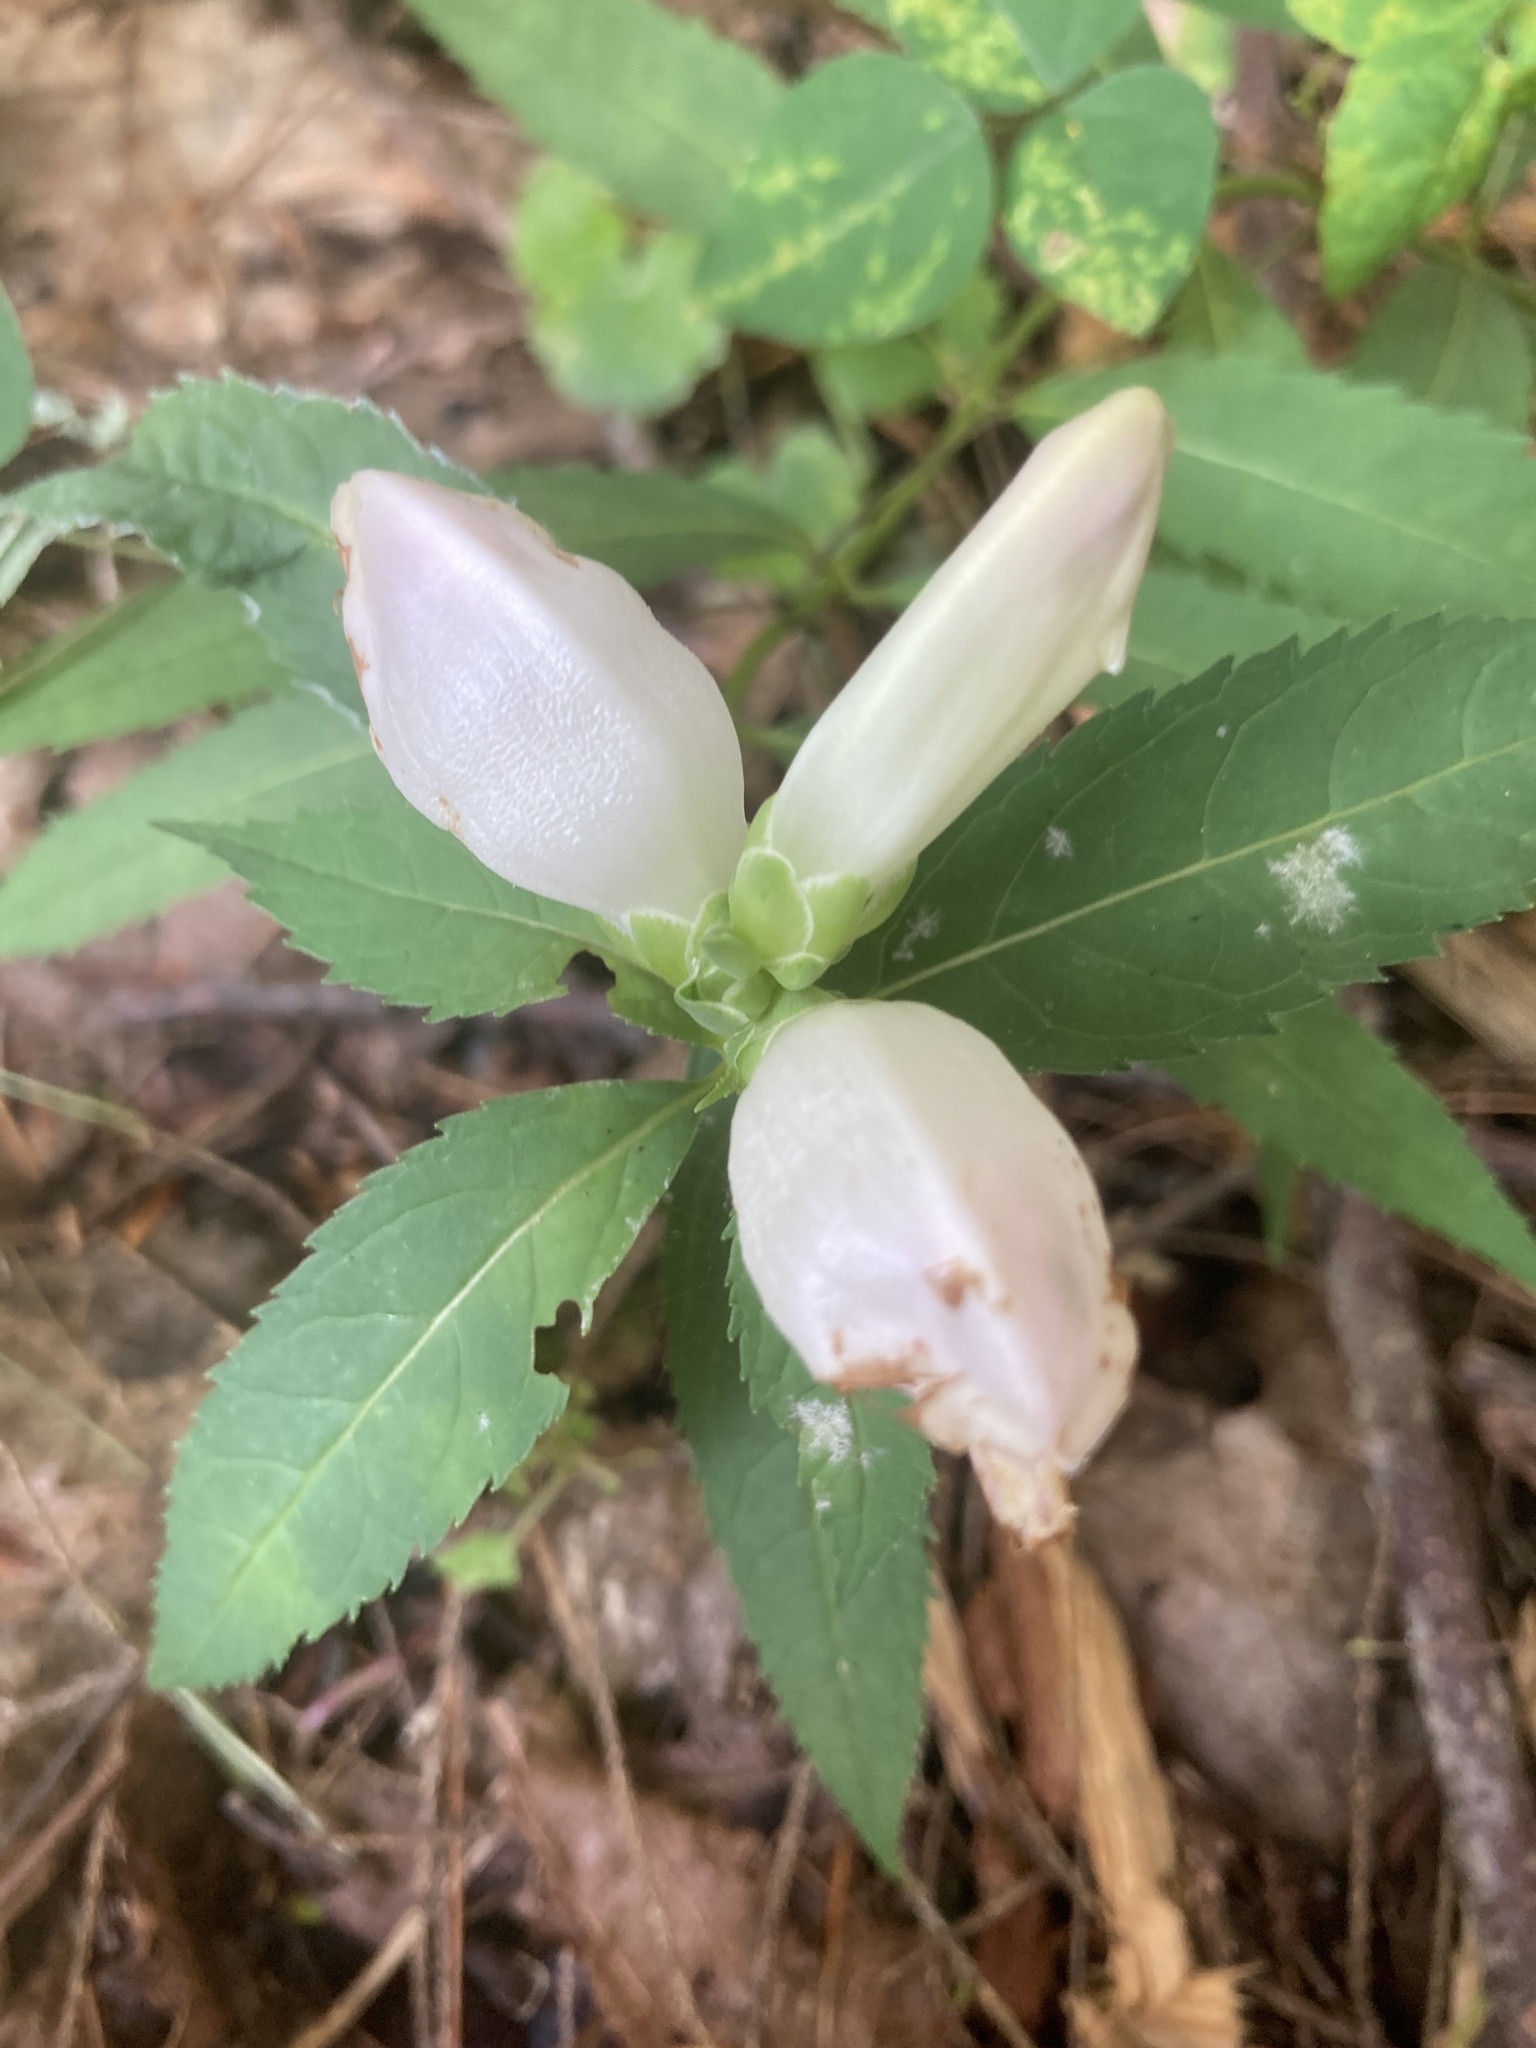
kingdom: Plantae
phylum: Tracheophyta
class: Magnoliopsida
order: Lamiales
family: Plantaginaceae
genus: Chelone
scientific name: Chelone glabra
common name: Snakehead
